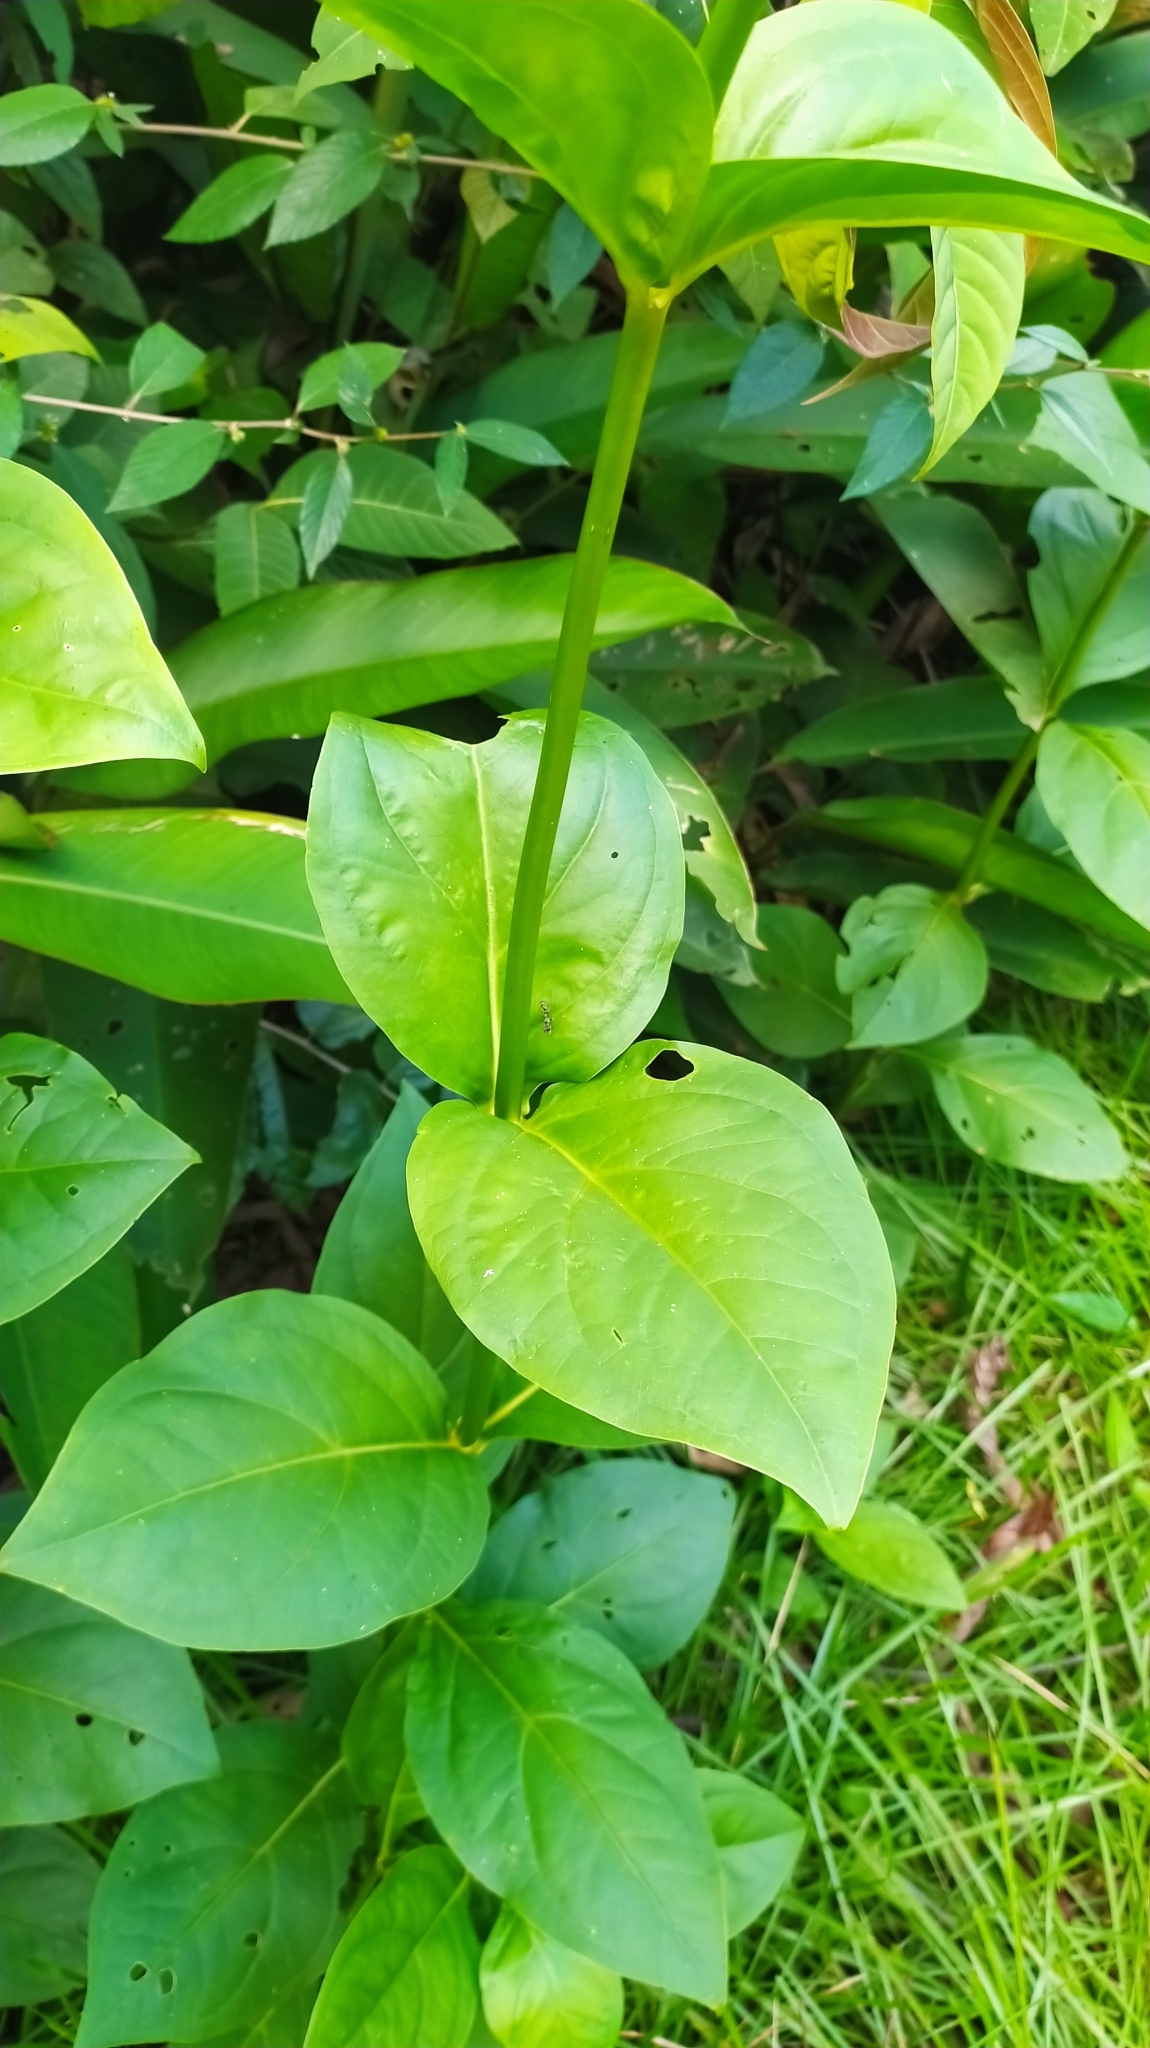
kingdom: Plantae
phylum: Tracheophyta
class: Magnoliopsida
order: Gentianales
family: Gentianaceae
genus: Chelonanthus
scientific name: Chelonanthus grandiflorus
